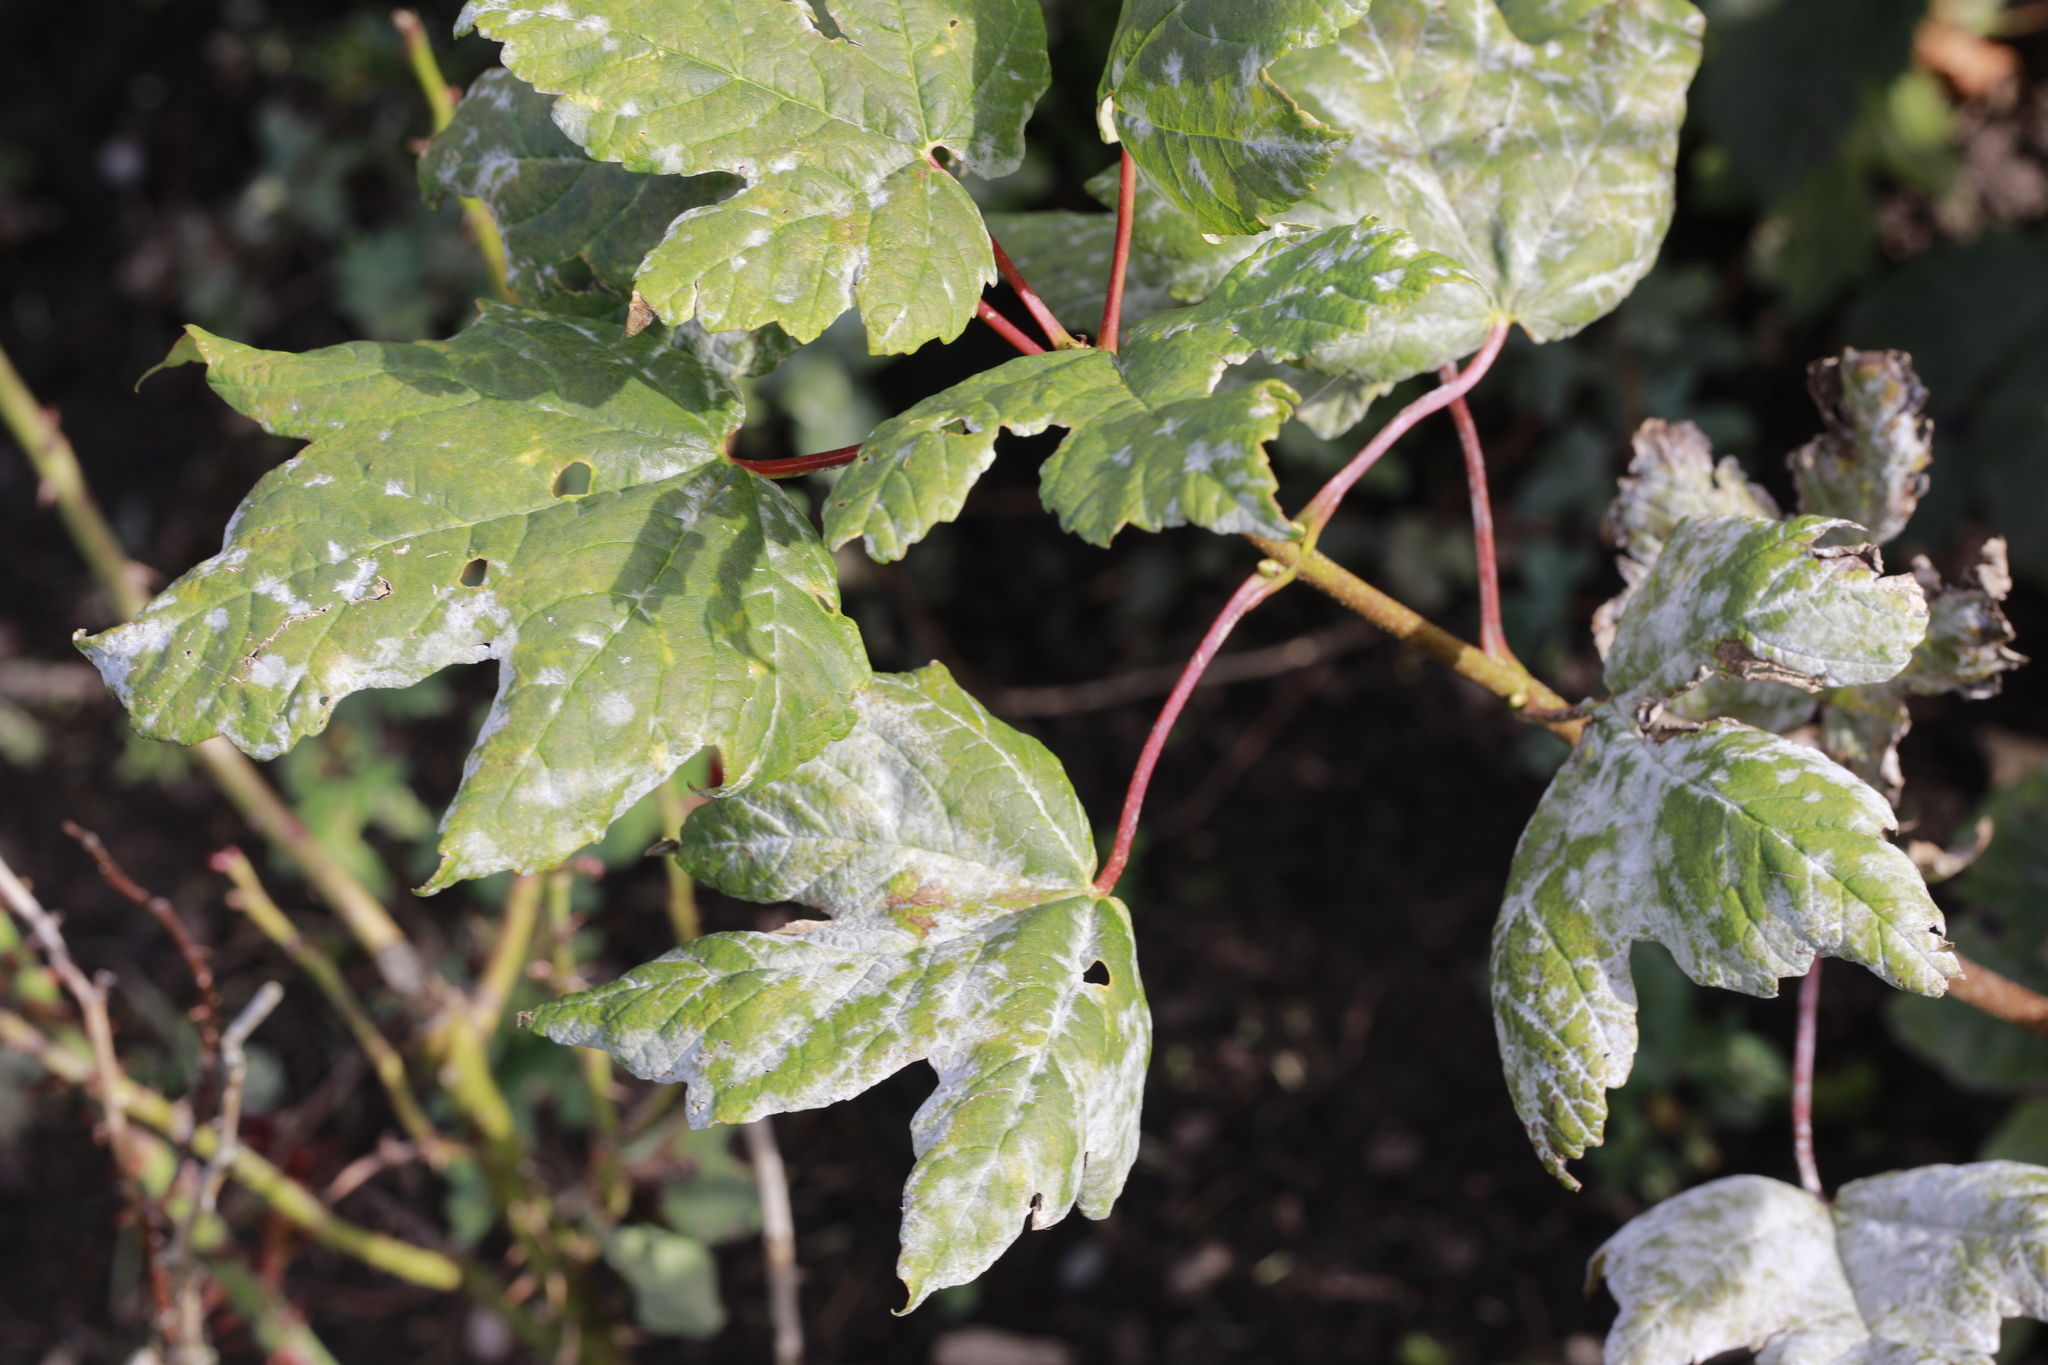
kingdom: Fungi
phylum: Ascomycota
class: Leotiomycetes
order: Helotiales
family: Erysiphaceae
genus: Sawadaea
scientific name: Sawadaea bicornis
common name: Maple mildew
